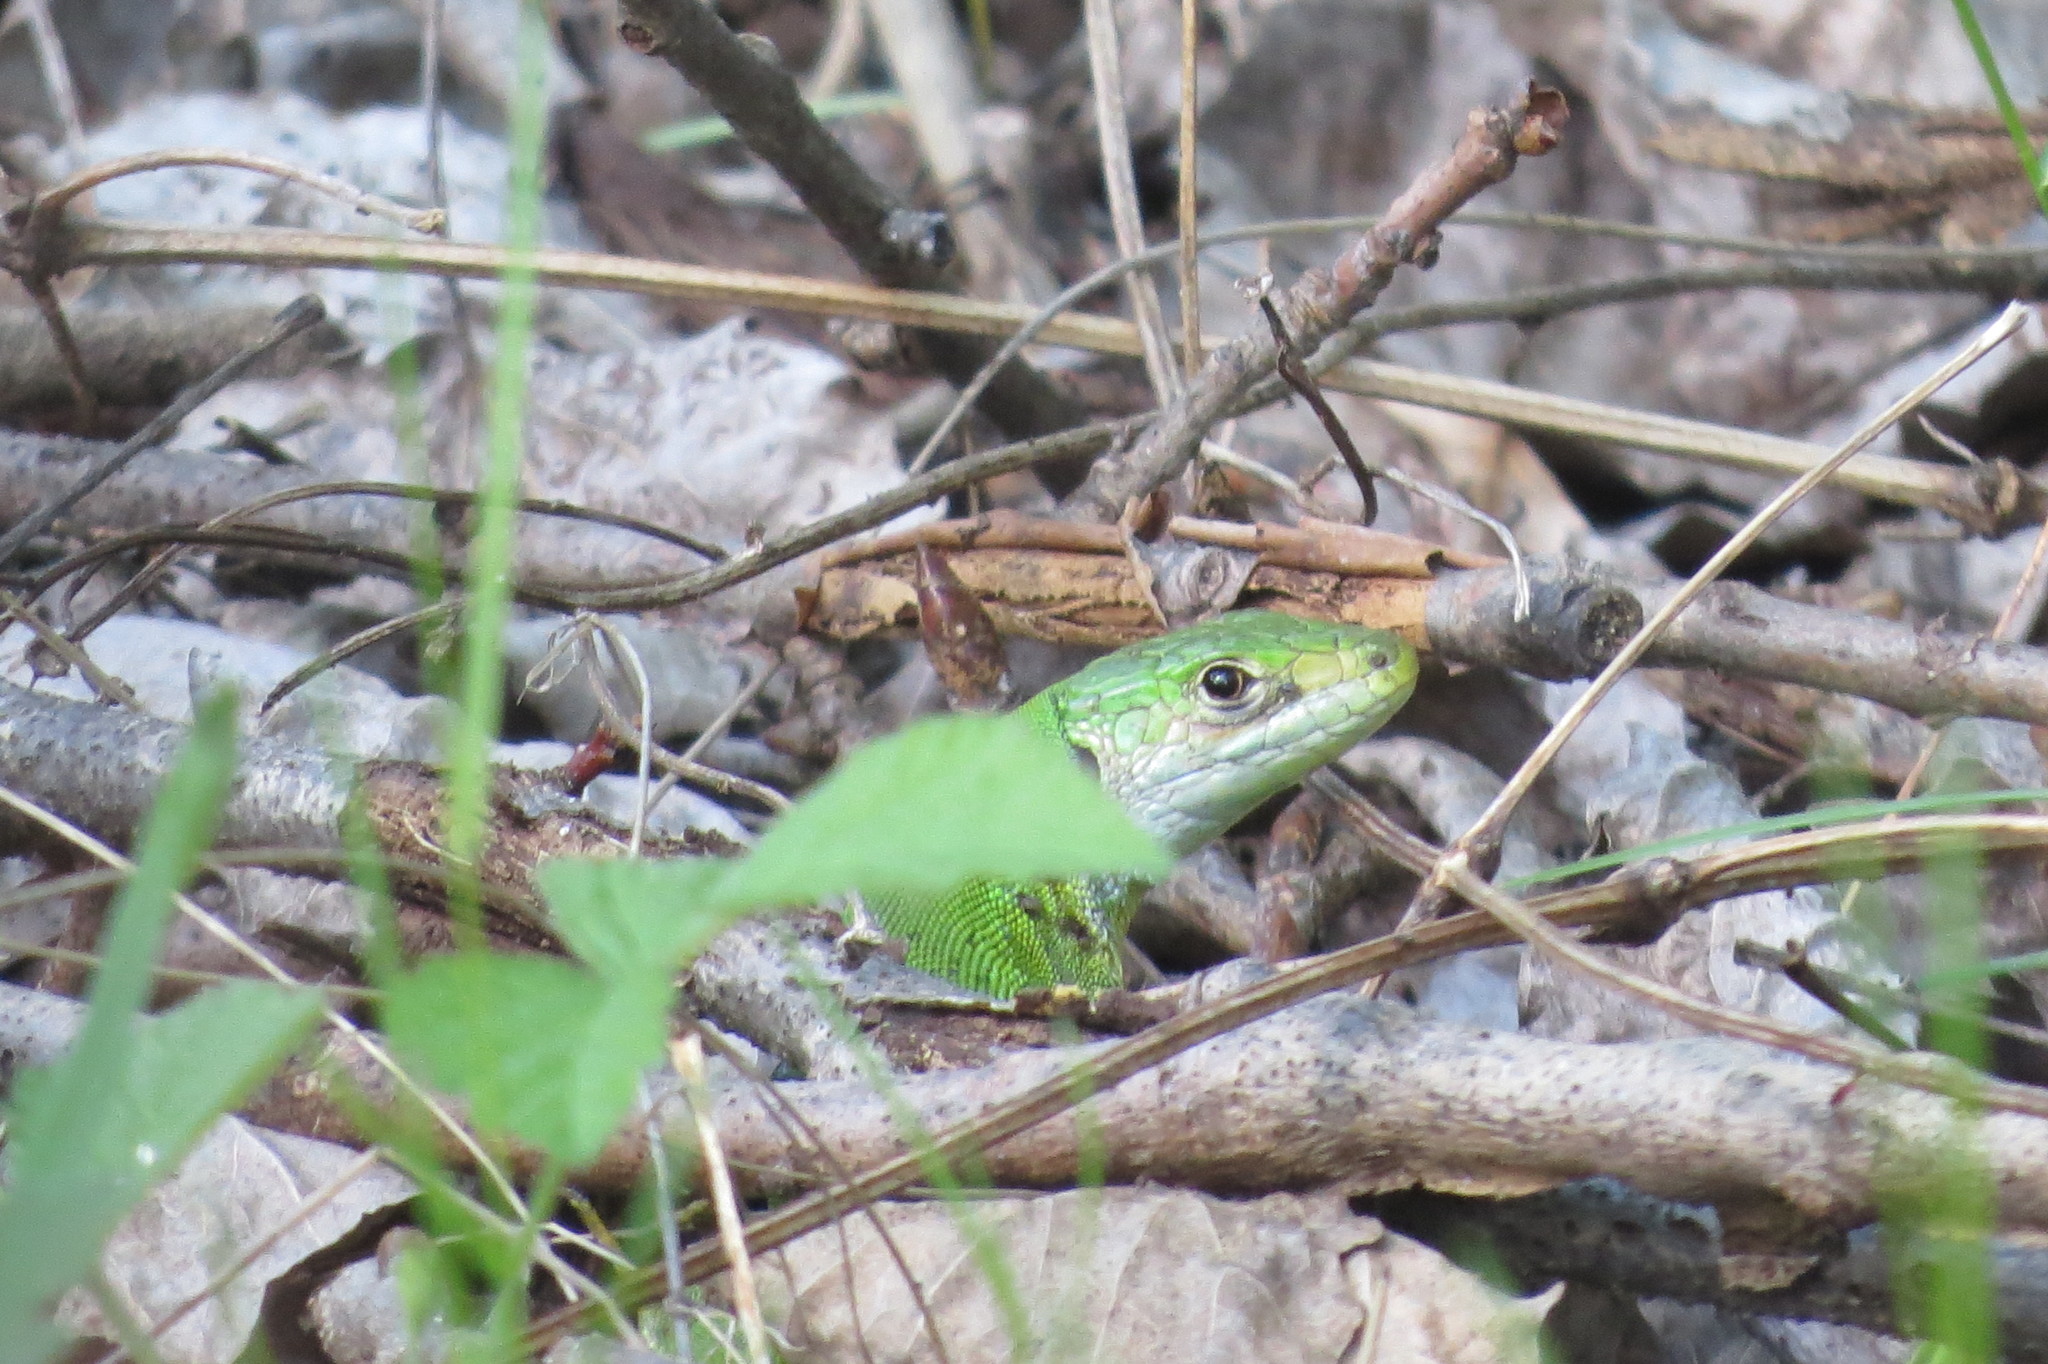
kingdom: Animalia
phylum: Chordata
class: Squamata
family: Lacertidae
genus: Lacerta
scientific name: Lacerta bilineata
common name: Western green lizard
